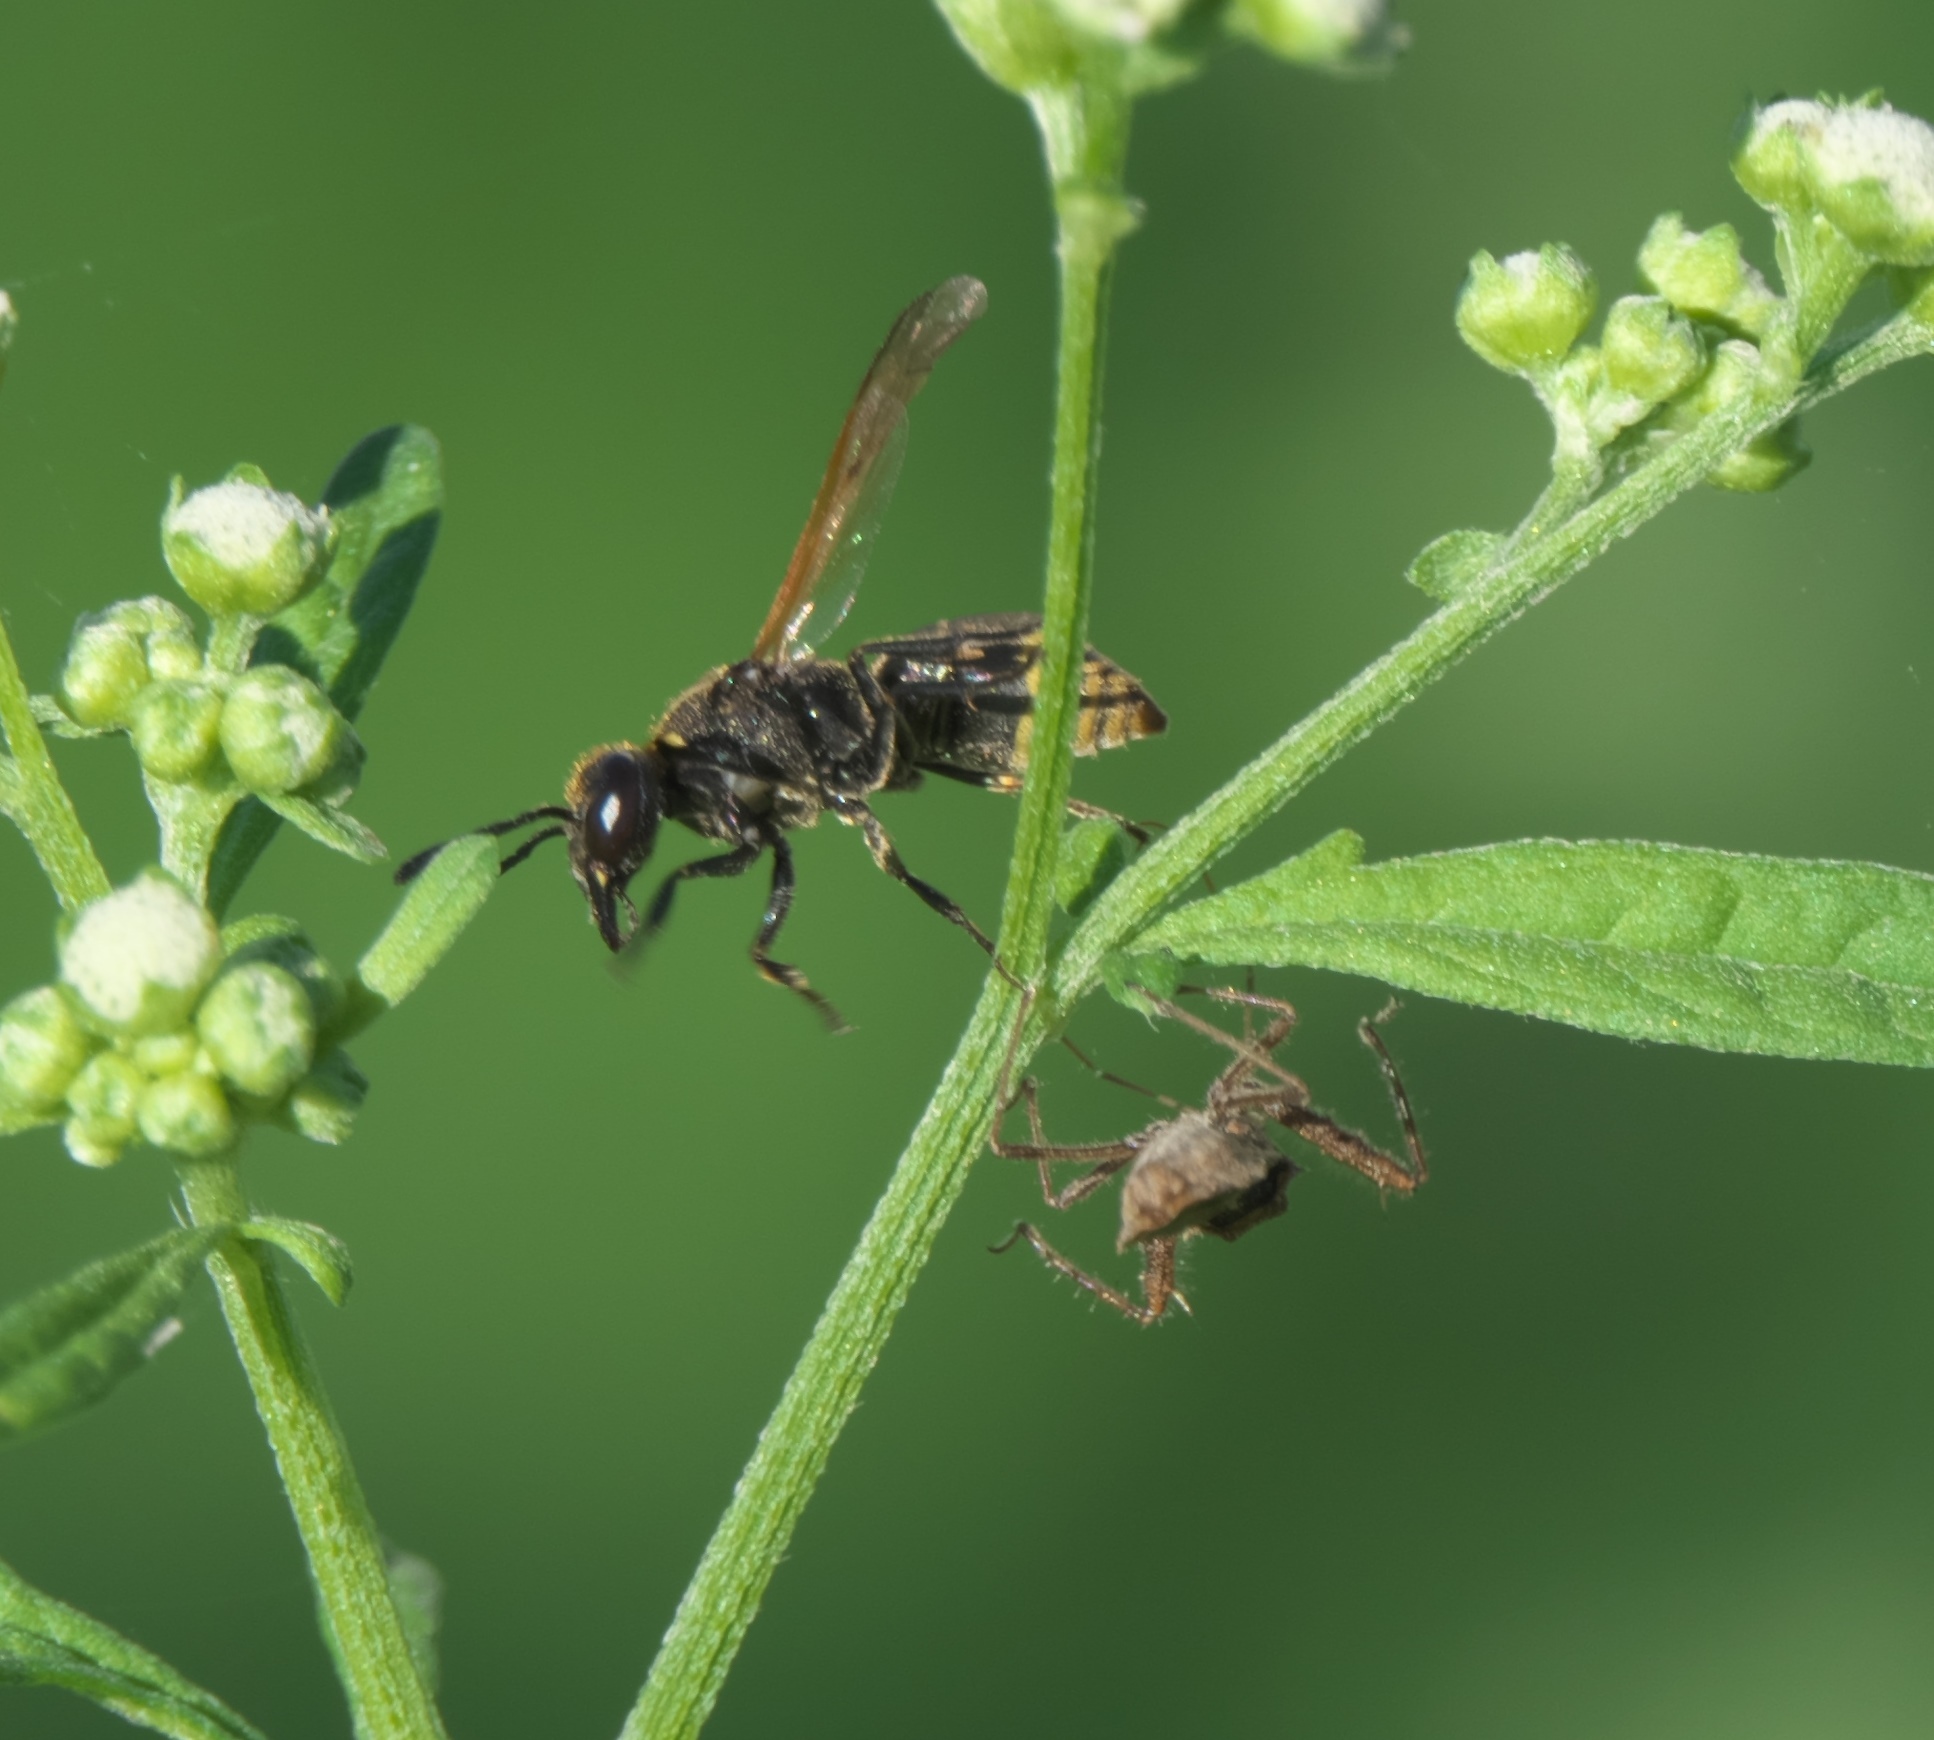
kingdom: Animalia
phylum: Arthropoda
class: Insecta
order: Hymenoptera
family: Eumenidae
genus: Pachodynerus
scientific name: Pachodynerus guadulpensis
